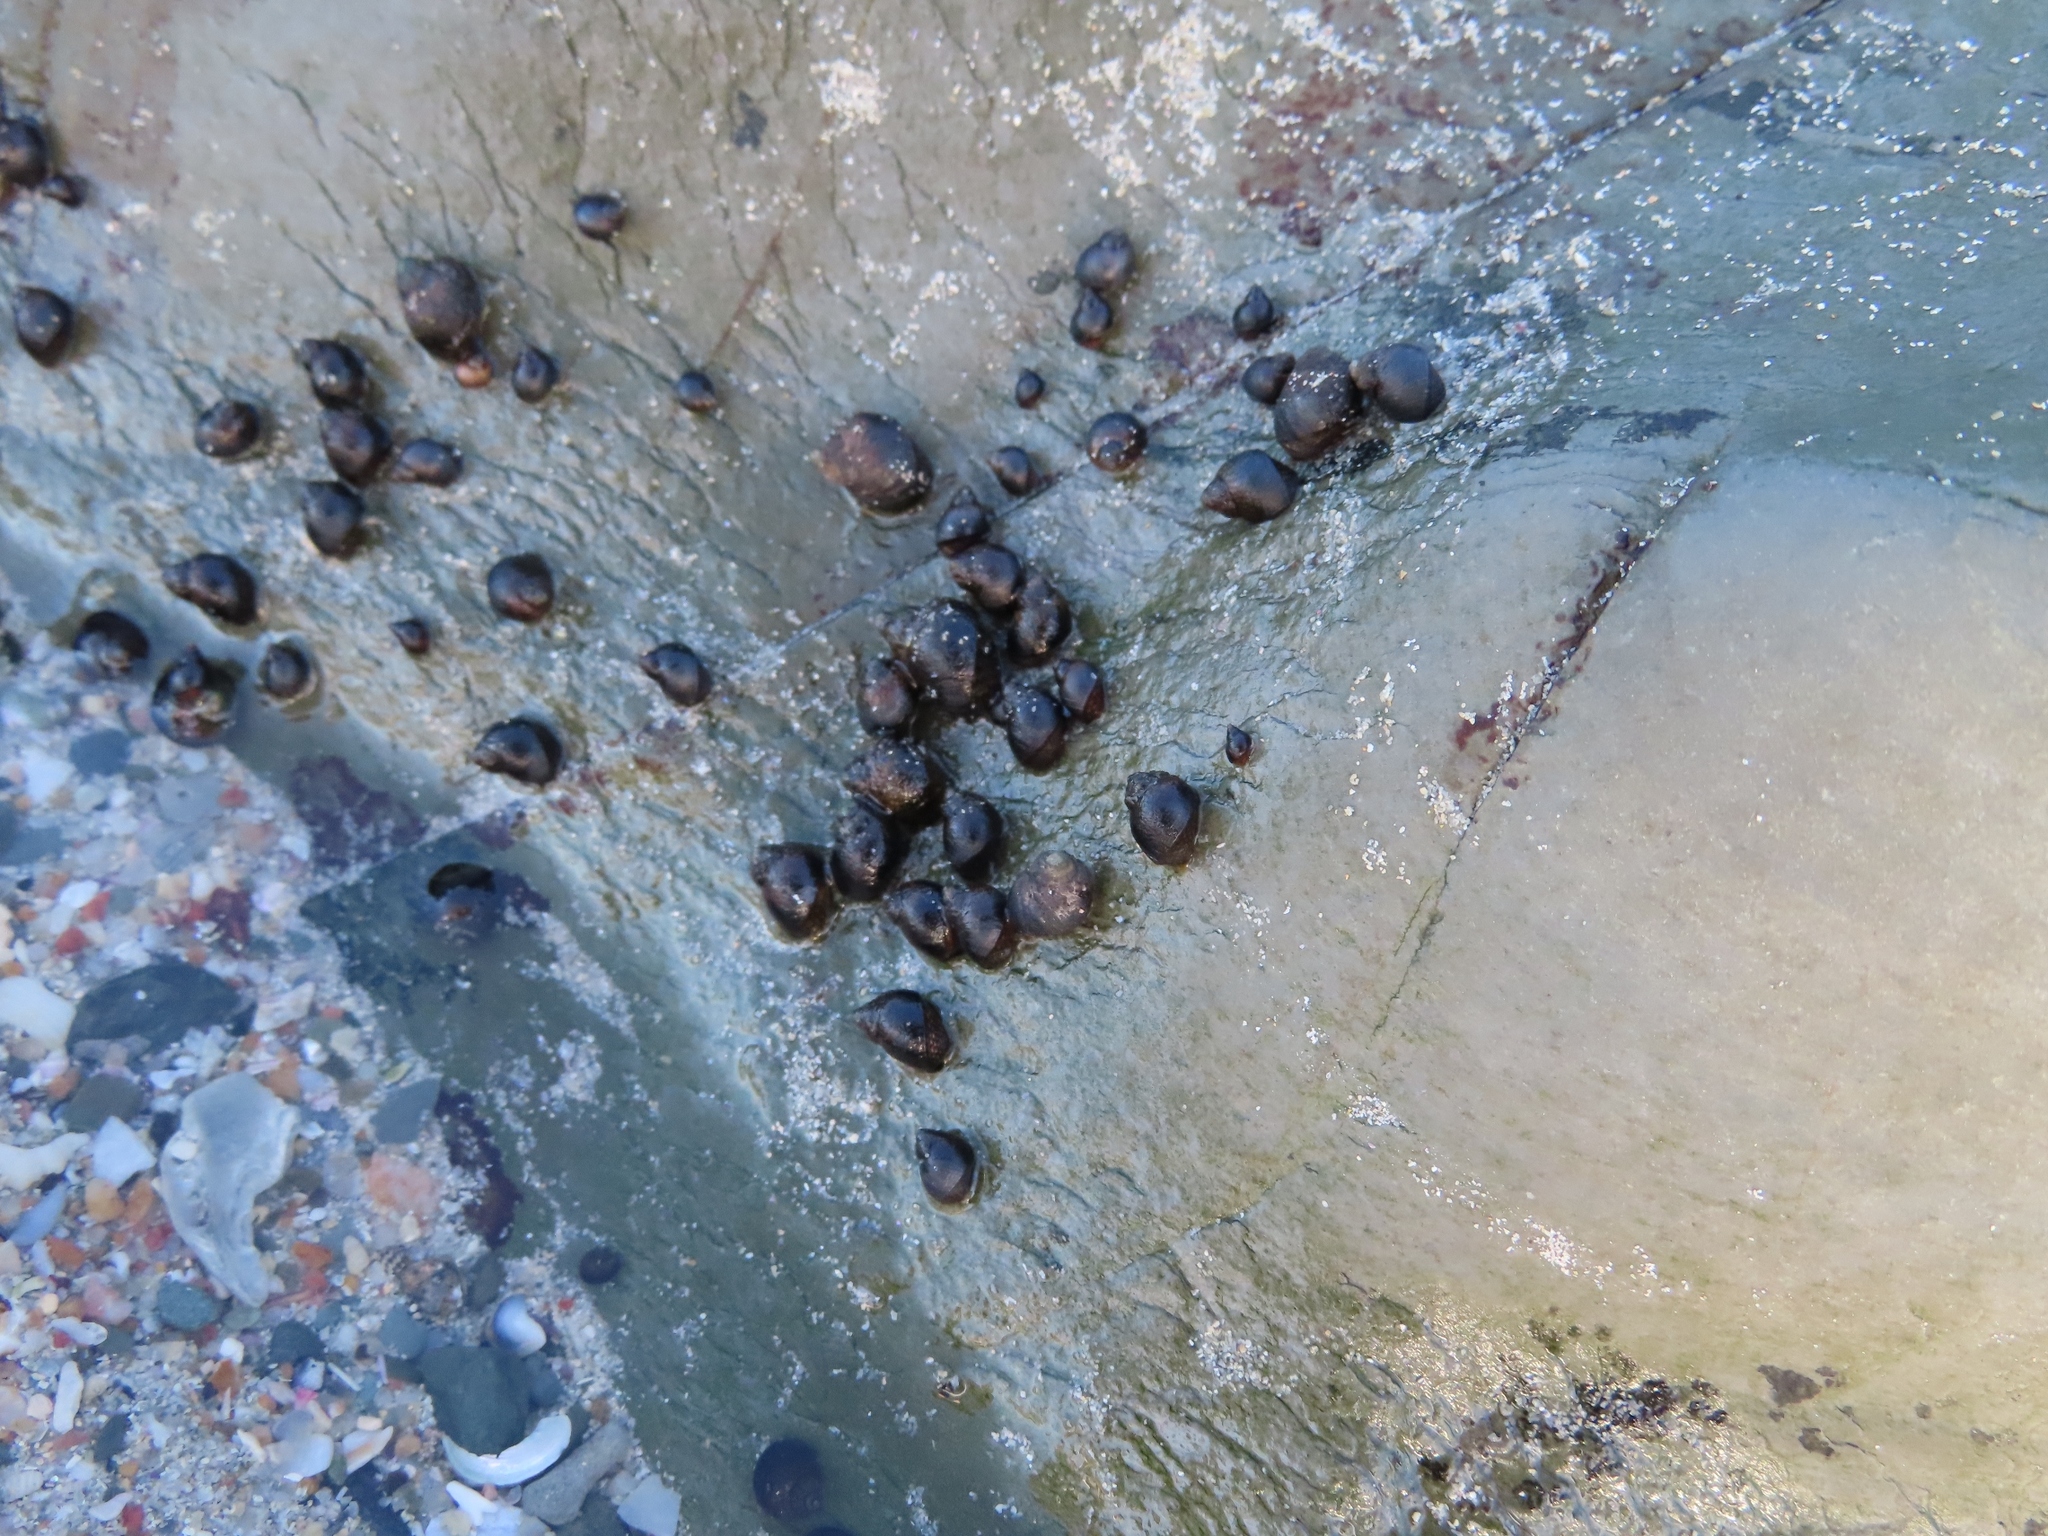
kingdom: Animalia
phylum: Mollusca
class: Gastropoda
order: Littorinimorpha
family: Littorinidae
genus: Afrolittorina
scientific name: Afrolittorina knysnaensis
